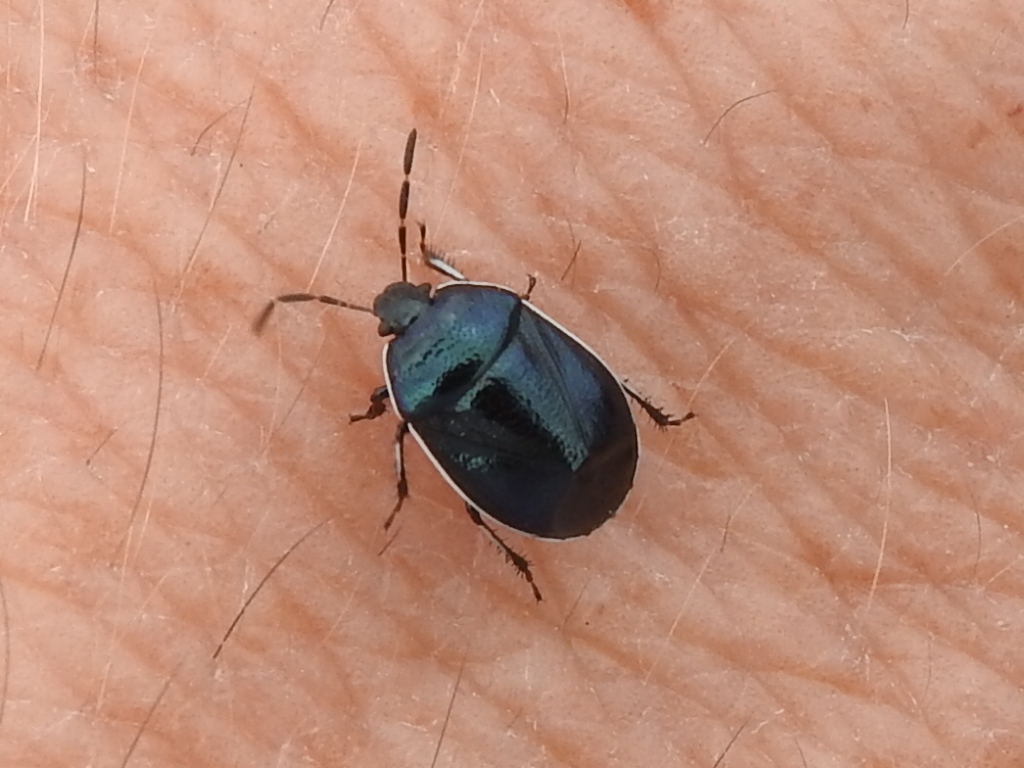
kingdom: Animalia
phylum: Arthropoda
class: Insecta
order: Hemiptera
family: Cydnidae
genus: Sehirus
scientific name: Sehirus cinctus
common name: White-margined burrower bug
